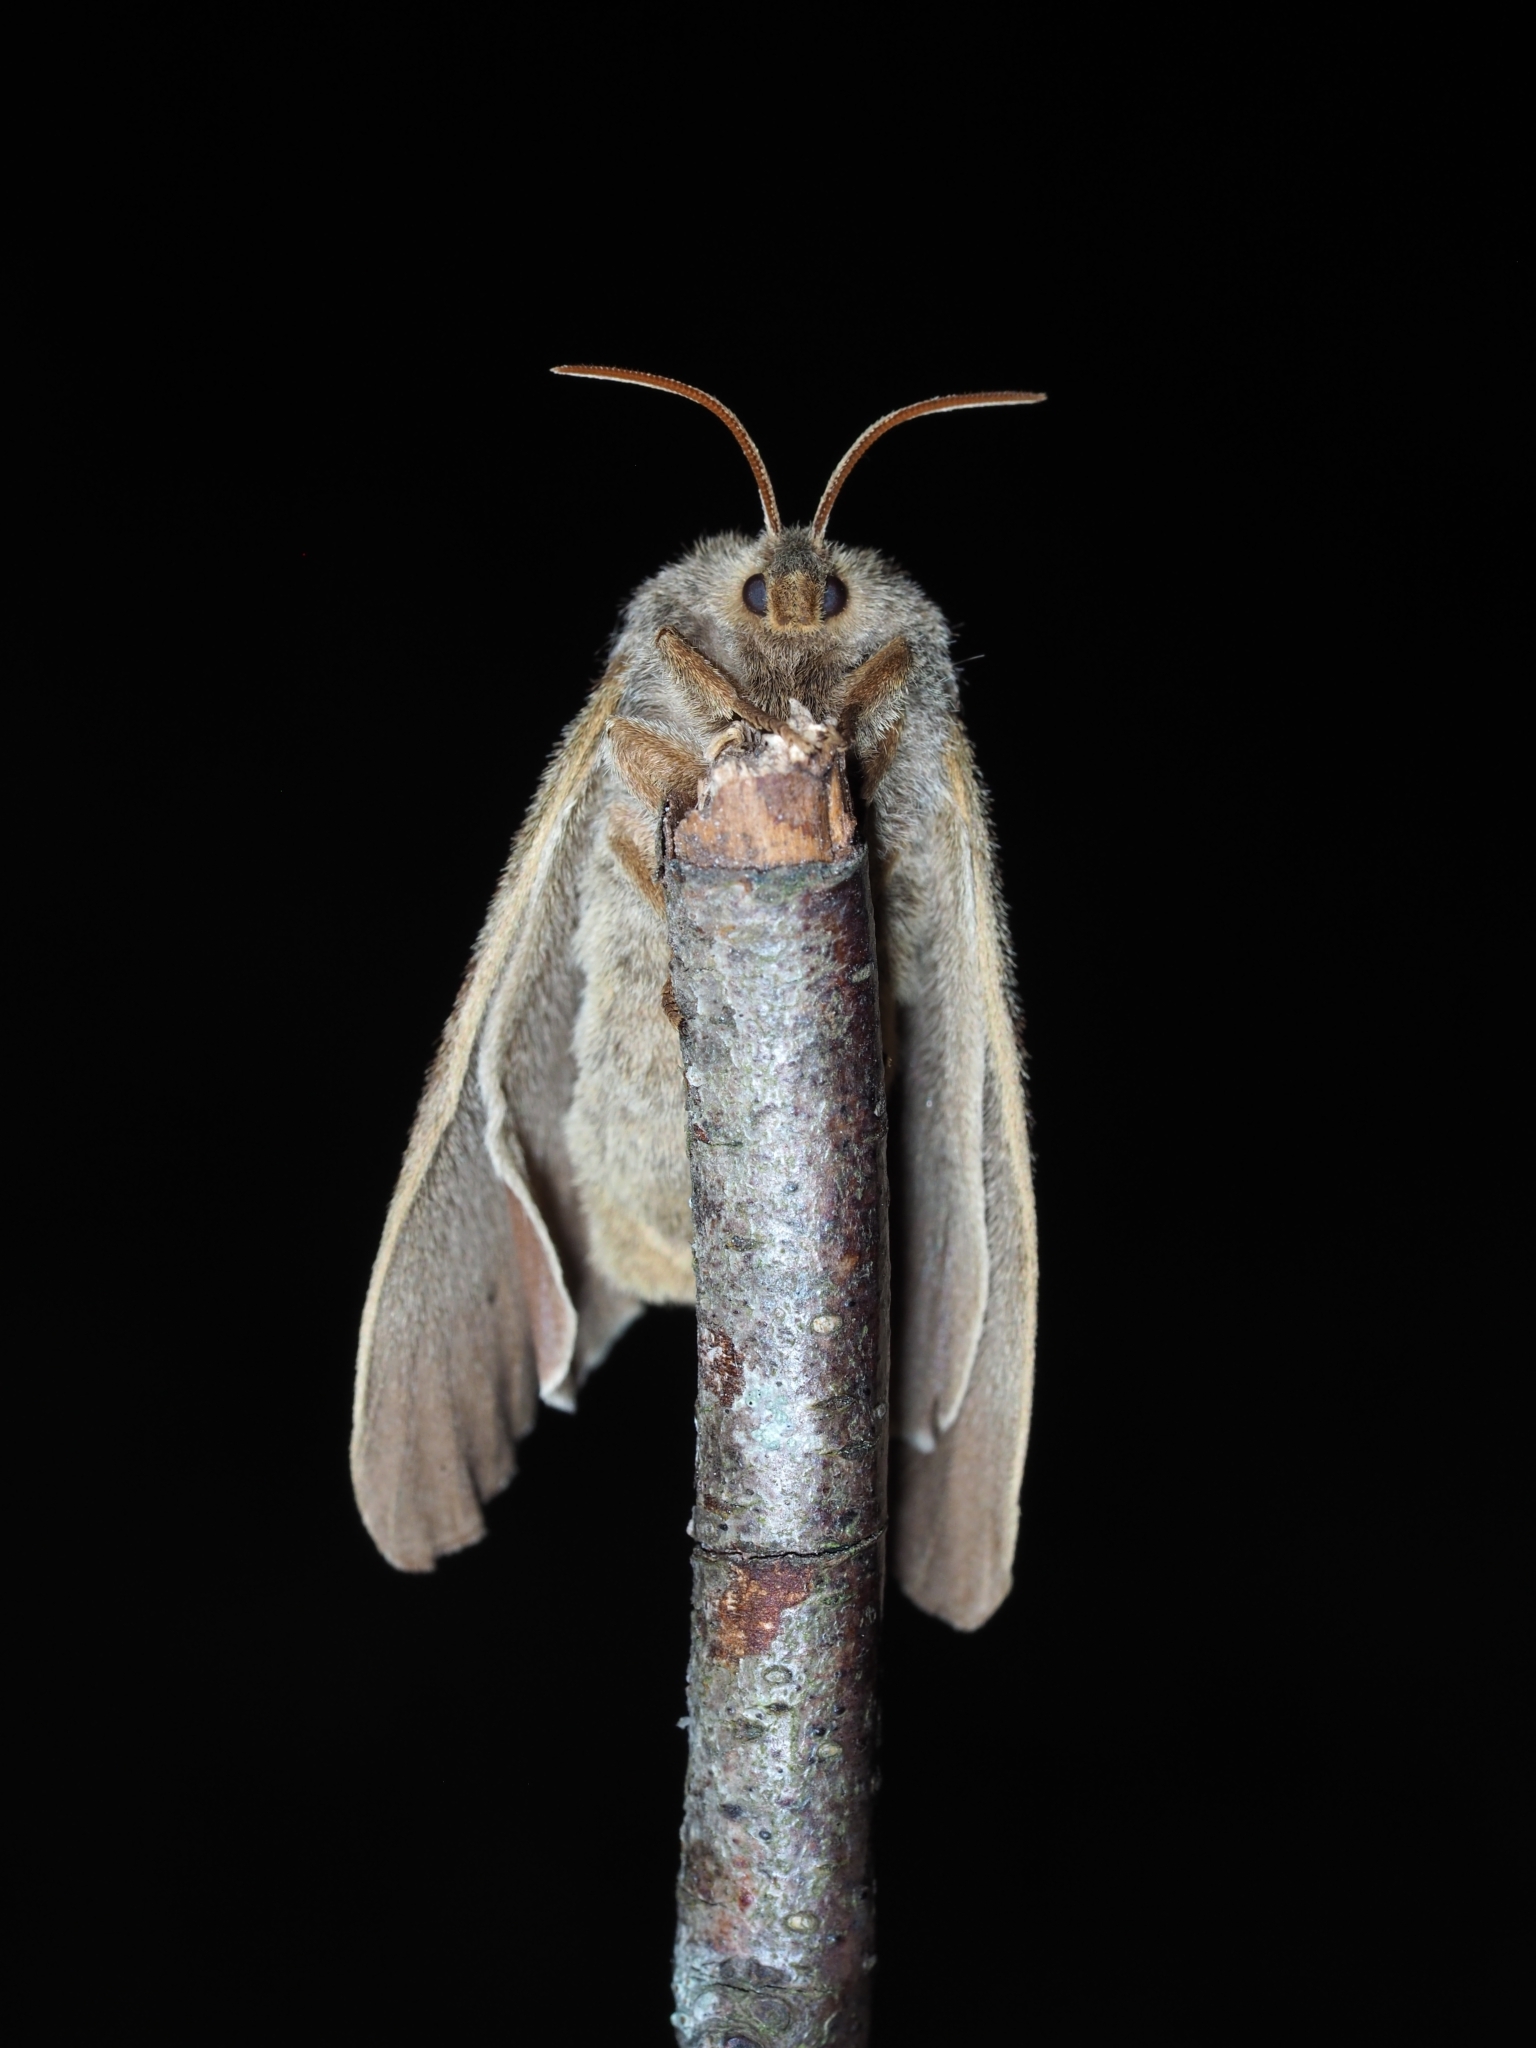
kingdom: Animalia
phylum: Arthropoda
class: Insecta
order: Lepidoptera
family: Lasiocampidae
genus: Macrothylacia
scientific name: Macrothylacia rubi
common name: Fox moth
